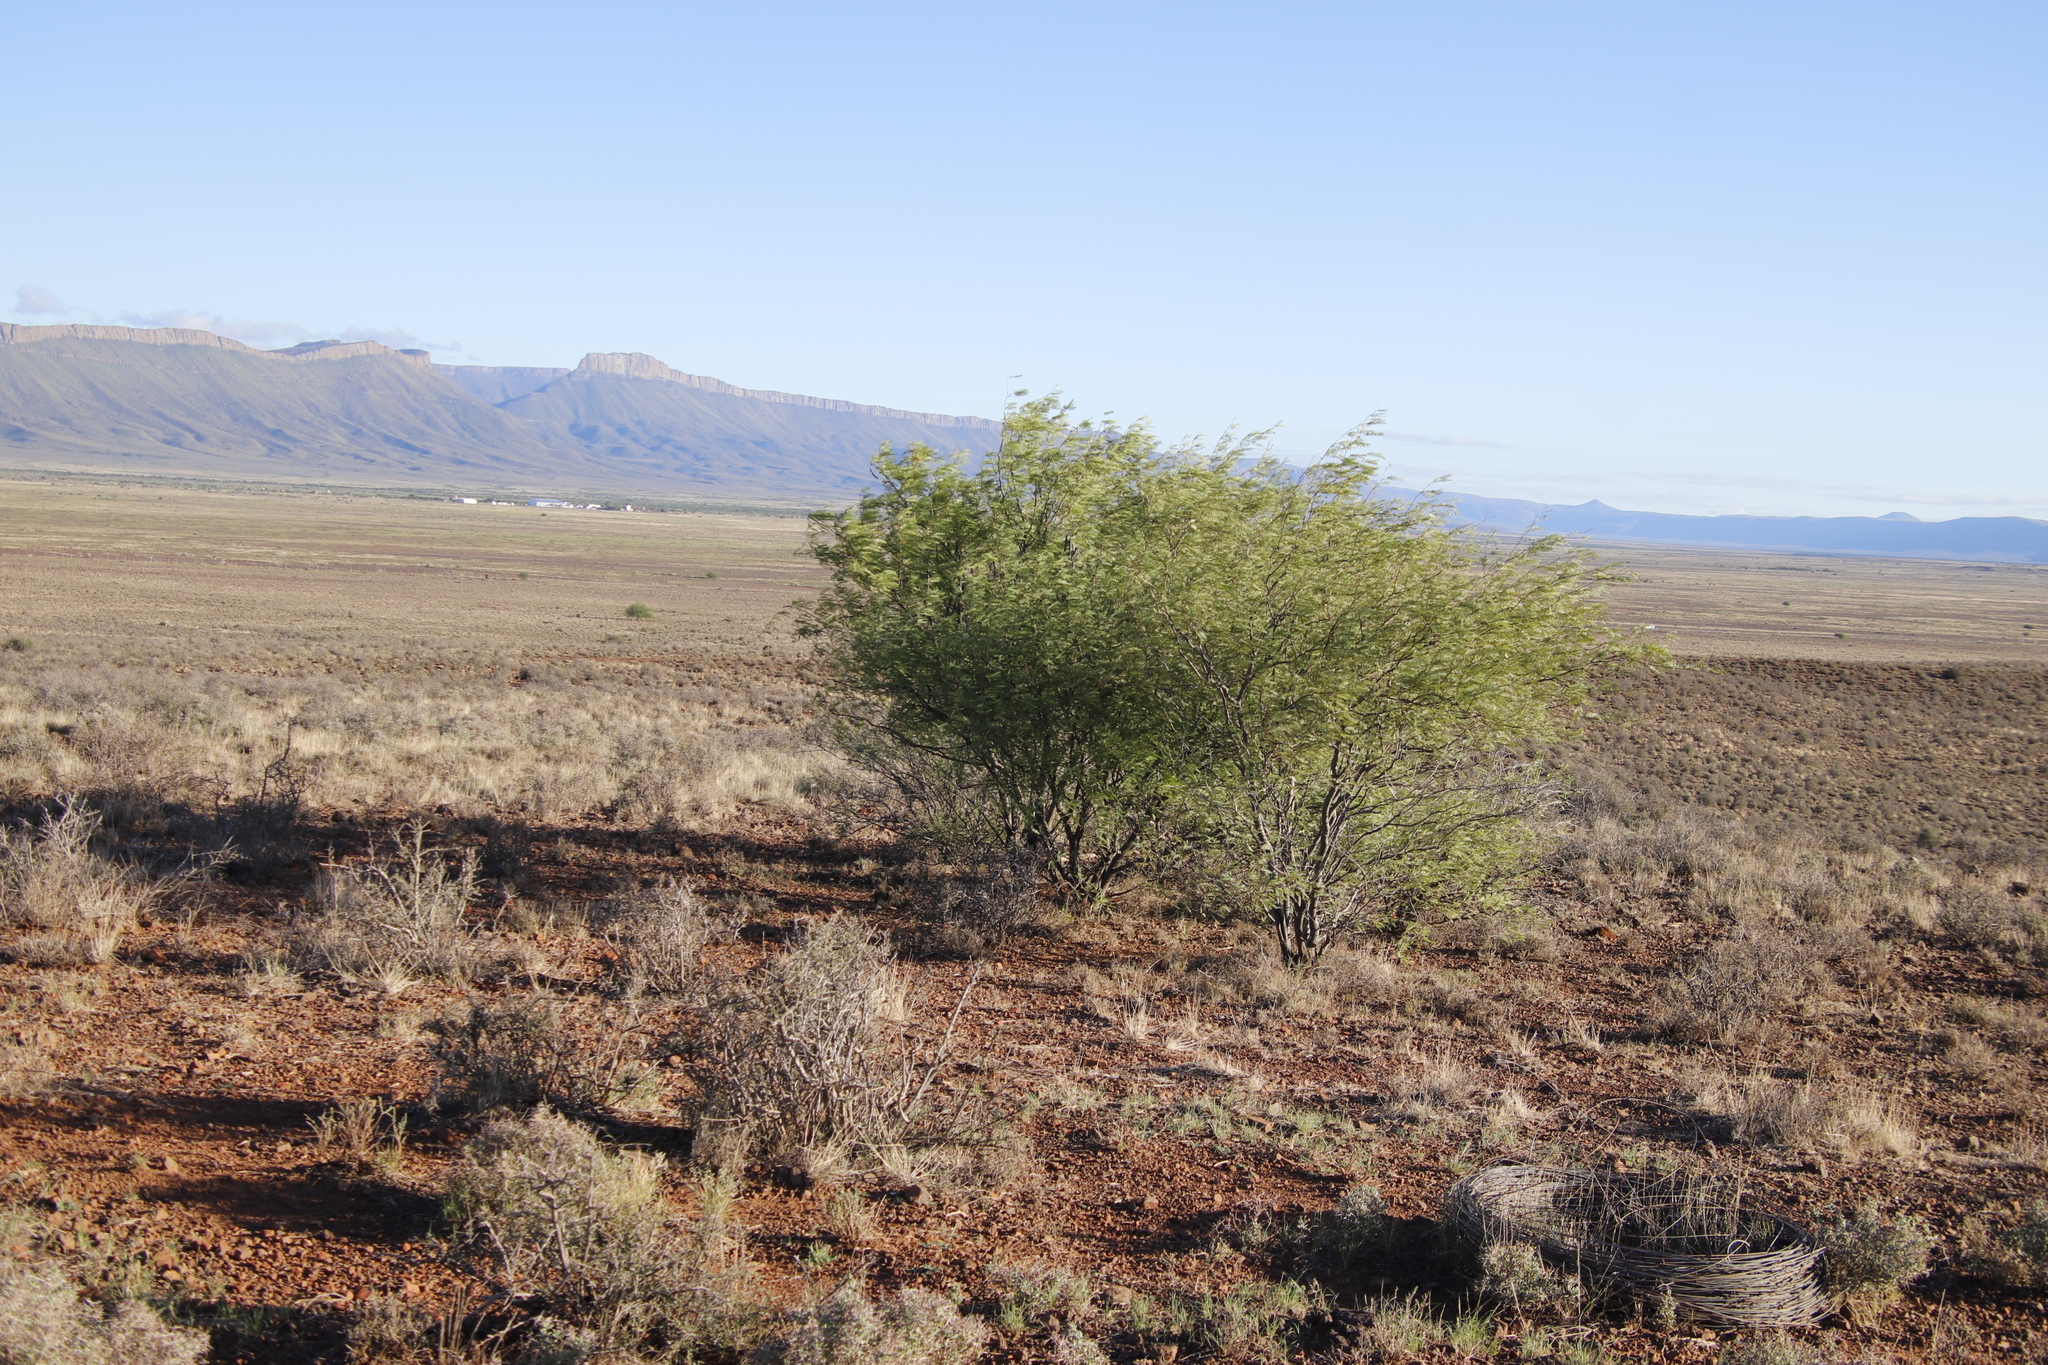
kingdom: Plantae
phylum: Tracheophyta
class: Magnoliopsida
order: Fabales
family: Fabaceae
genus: Prosopis
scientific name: Prosopis pubescens
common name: Screw-bean
